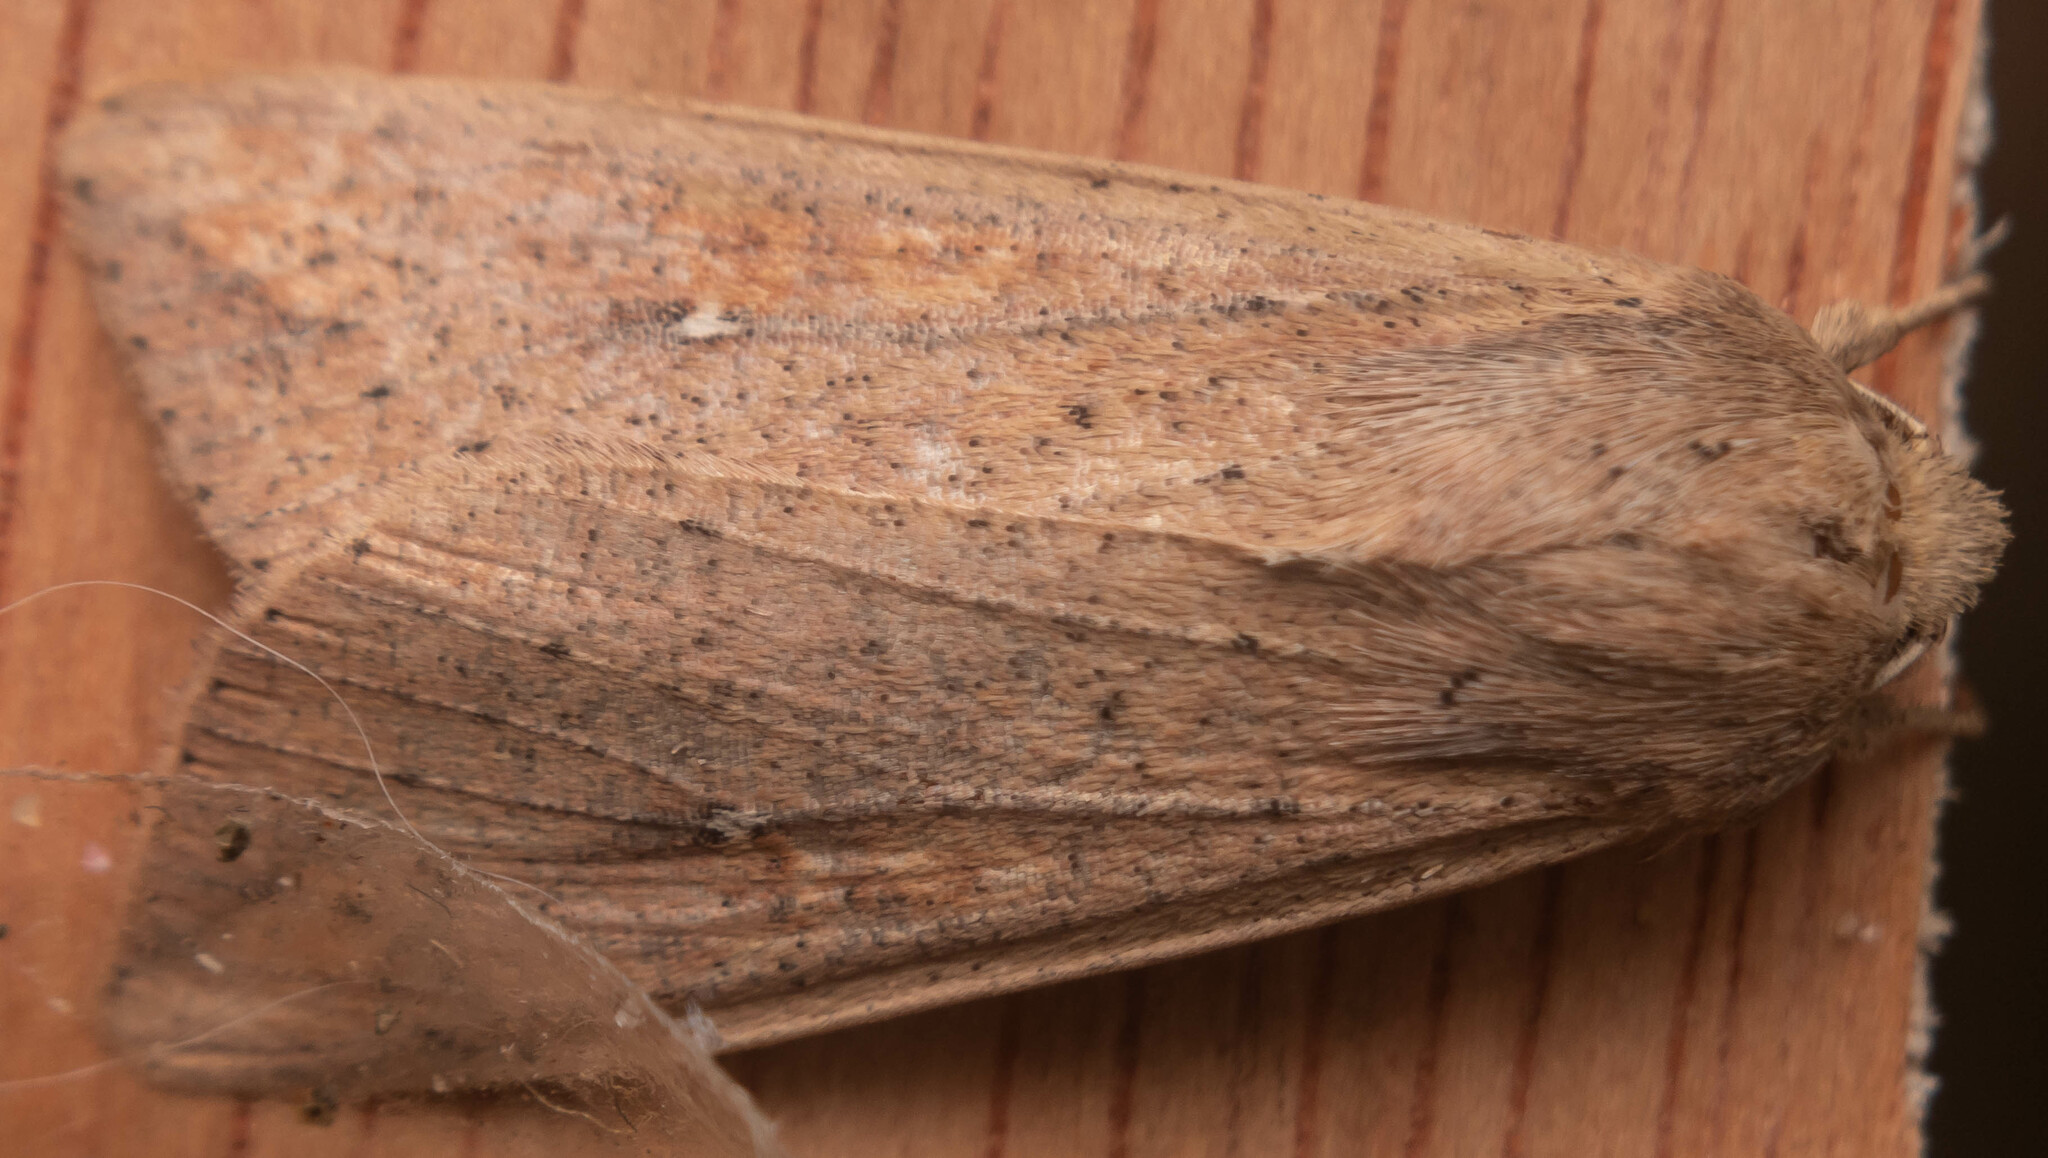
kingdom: Animalia
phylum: Arthropoda
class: Insecta
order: Lepidoptera
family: Noctuidae
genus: Mythimna
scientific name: Mythimna unipuncta
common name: White-speck
